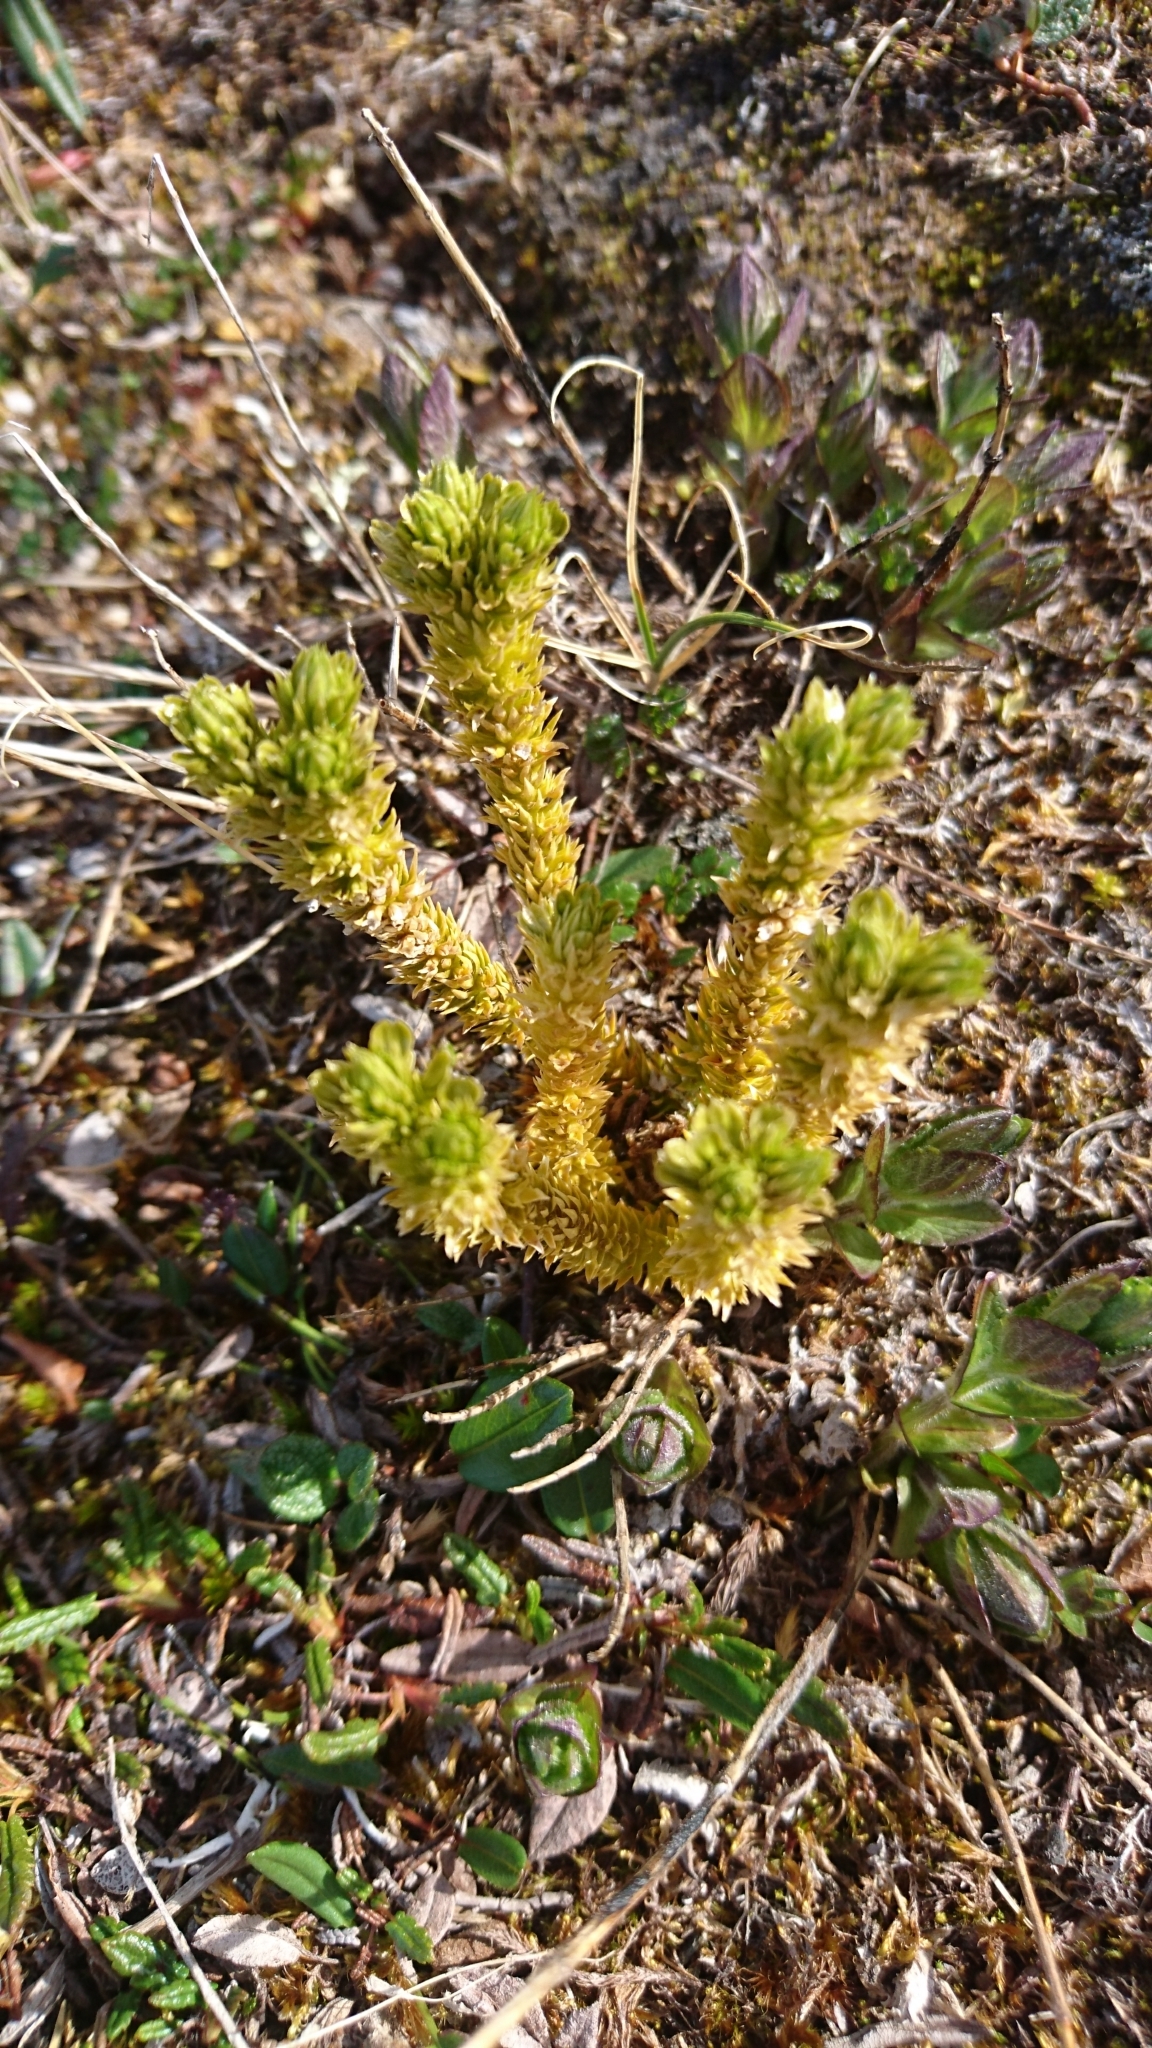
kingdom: Plantae
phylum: Tracheophyta
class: Lycopodiopsida
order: Lycopodiales
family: Lycopodiaceae
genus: Huperzia
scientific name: Huperzia selago
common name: Northern firmoss
